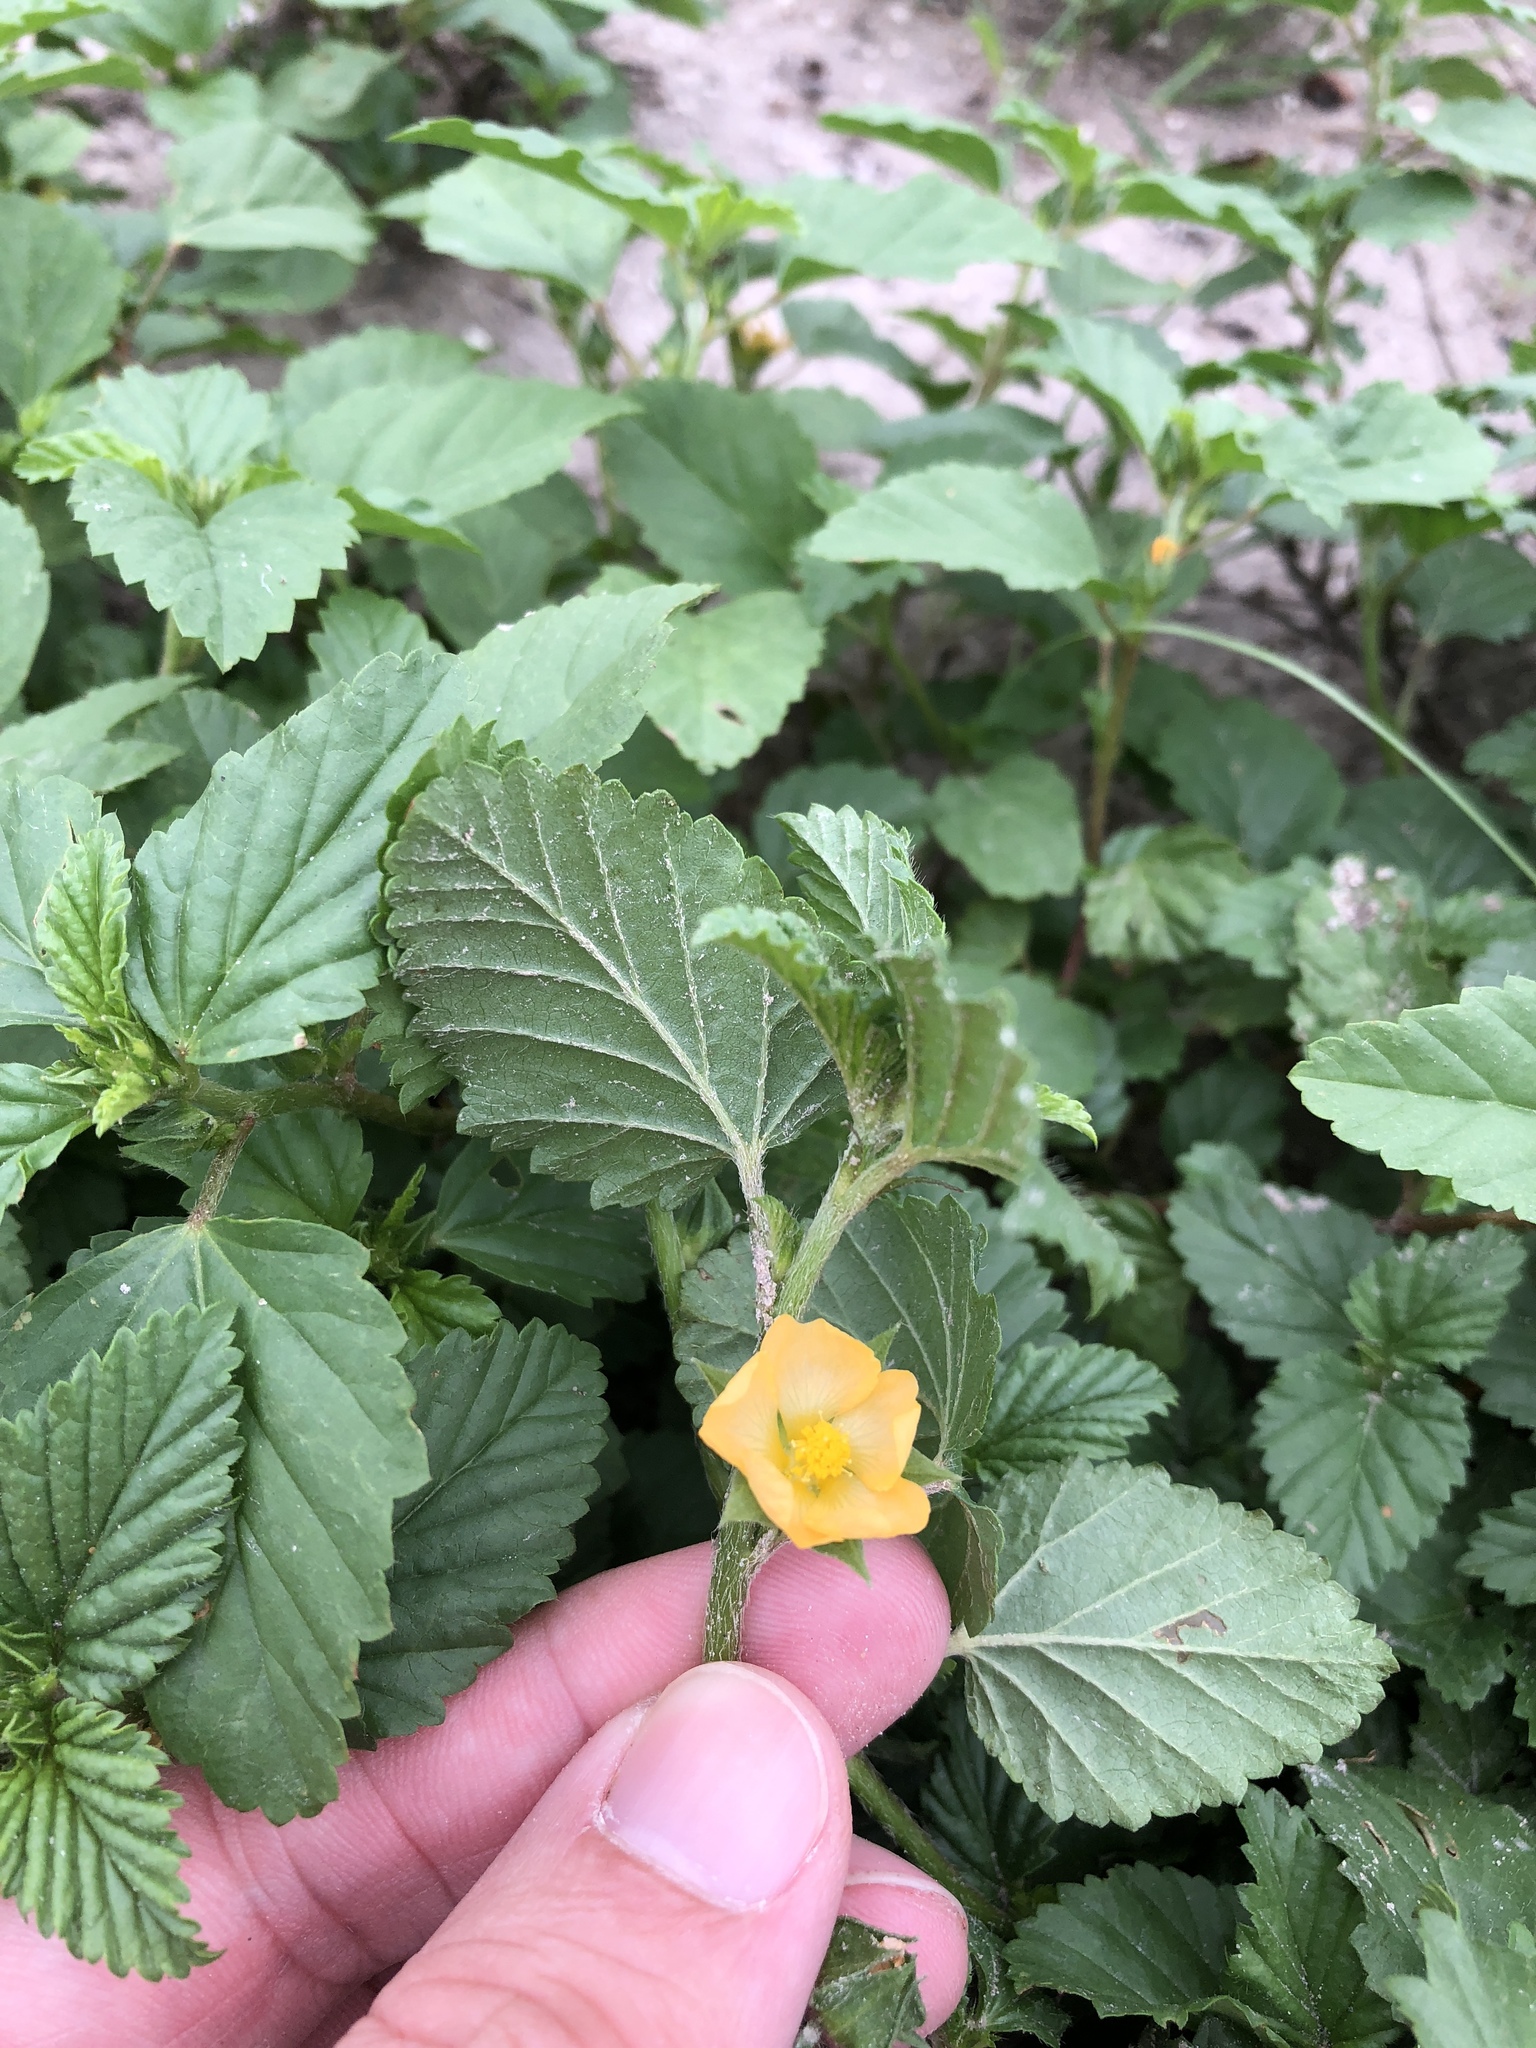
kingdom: Plantae
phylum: Tracheophyta
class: Magnoliopsida
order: Malvales
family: Malvaceae
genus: Malvastrum
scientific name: Malvastrum coromandelianum
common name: Threelobe false mallow
